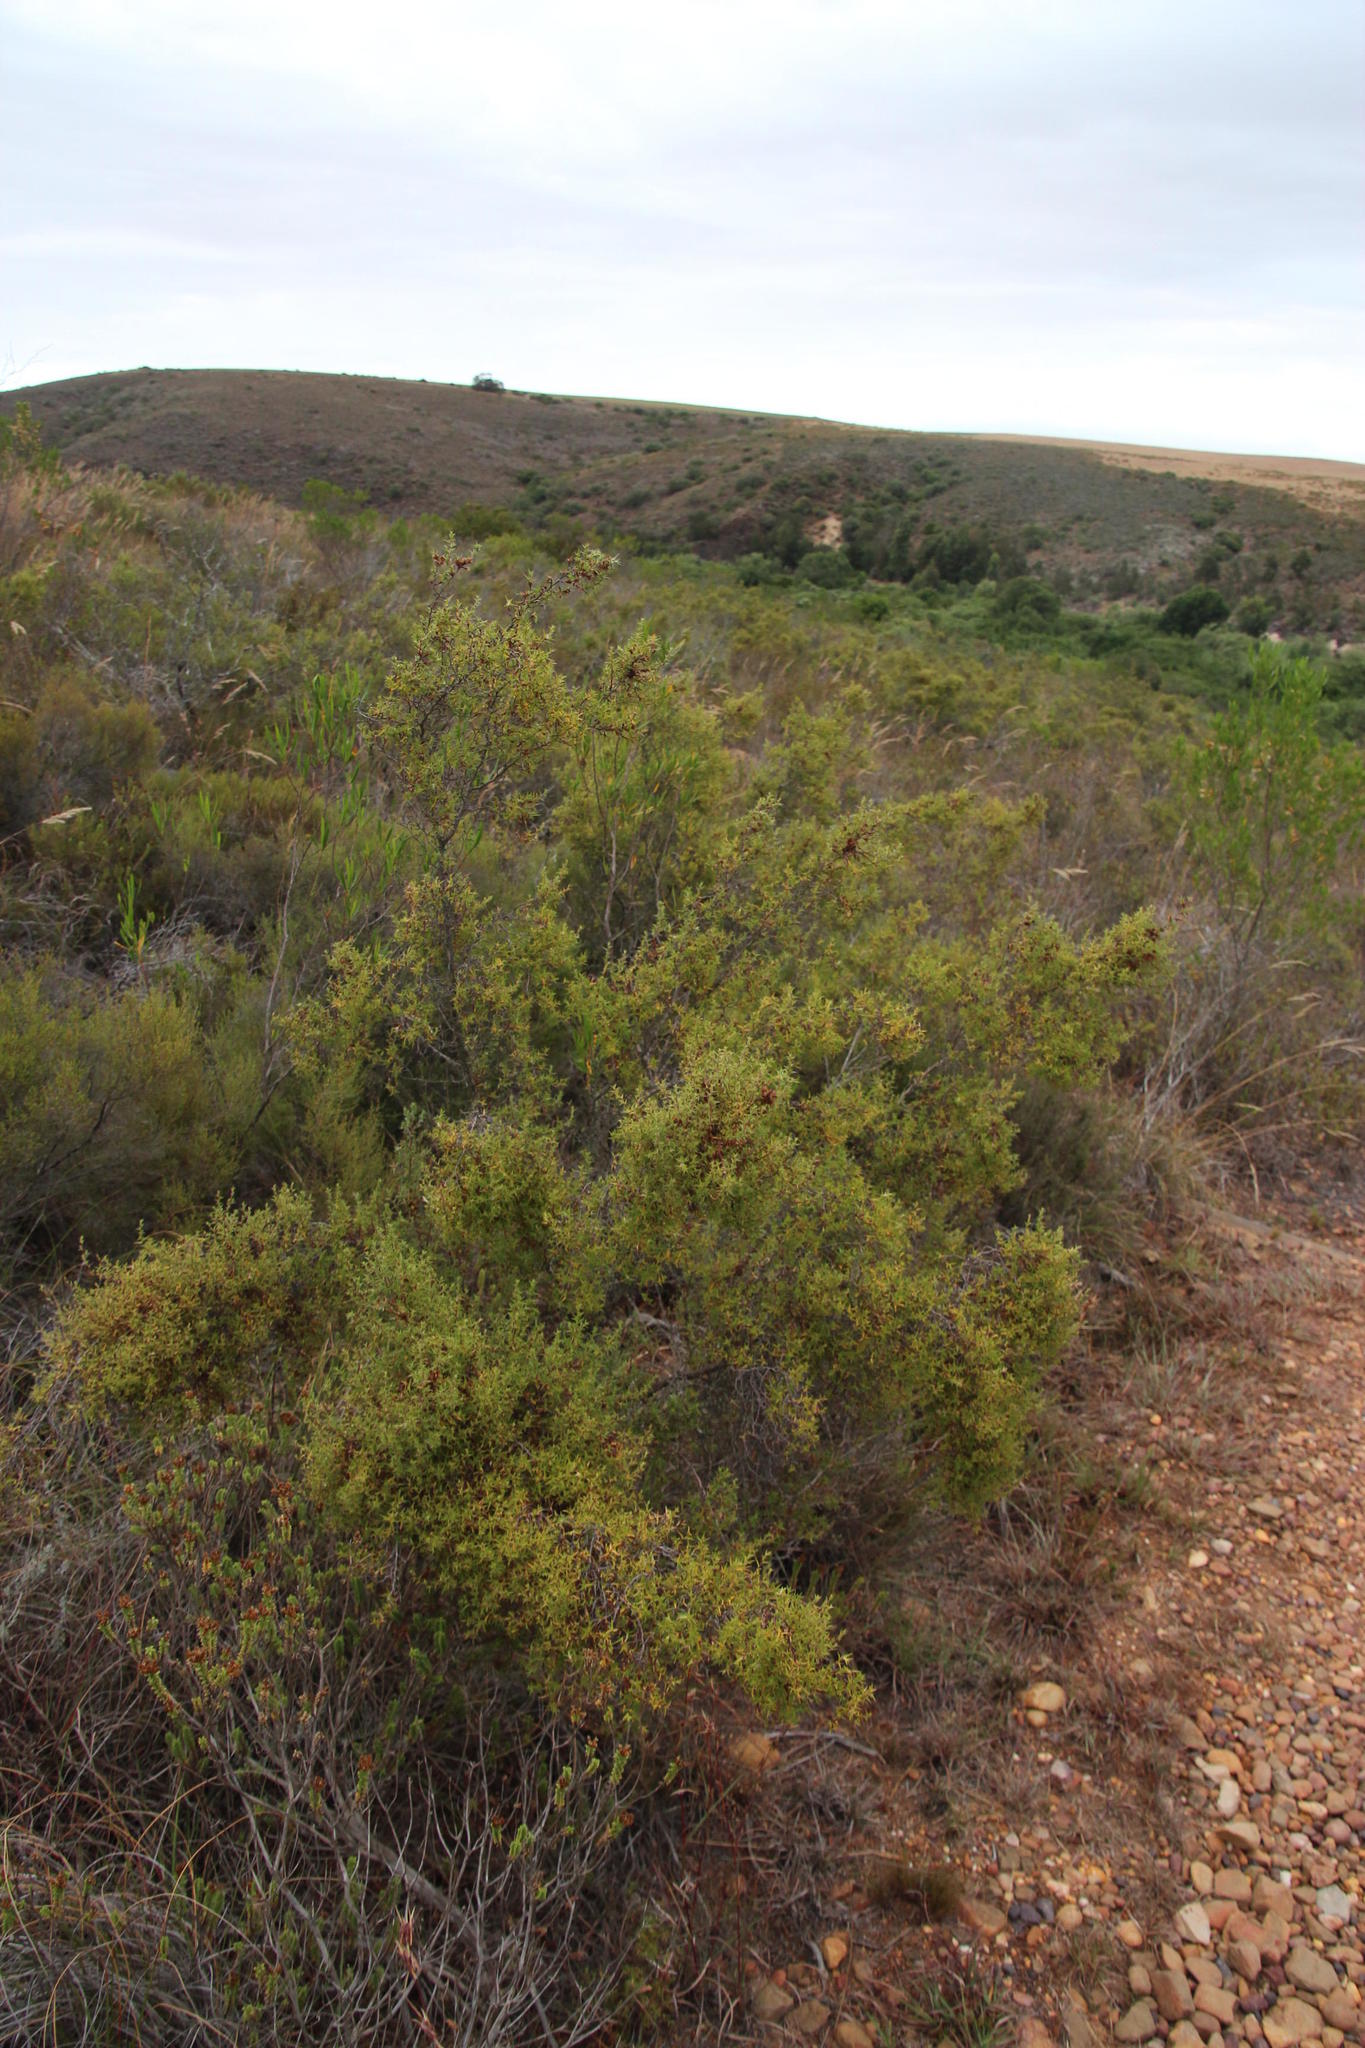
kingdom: Plantae
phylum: Tracheophyta
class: Magnoliopsida
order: Rosales
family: Rosaceae
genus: Cliffortia
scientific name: Cliffortia ruscifolia
